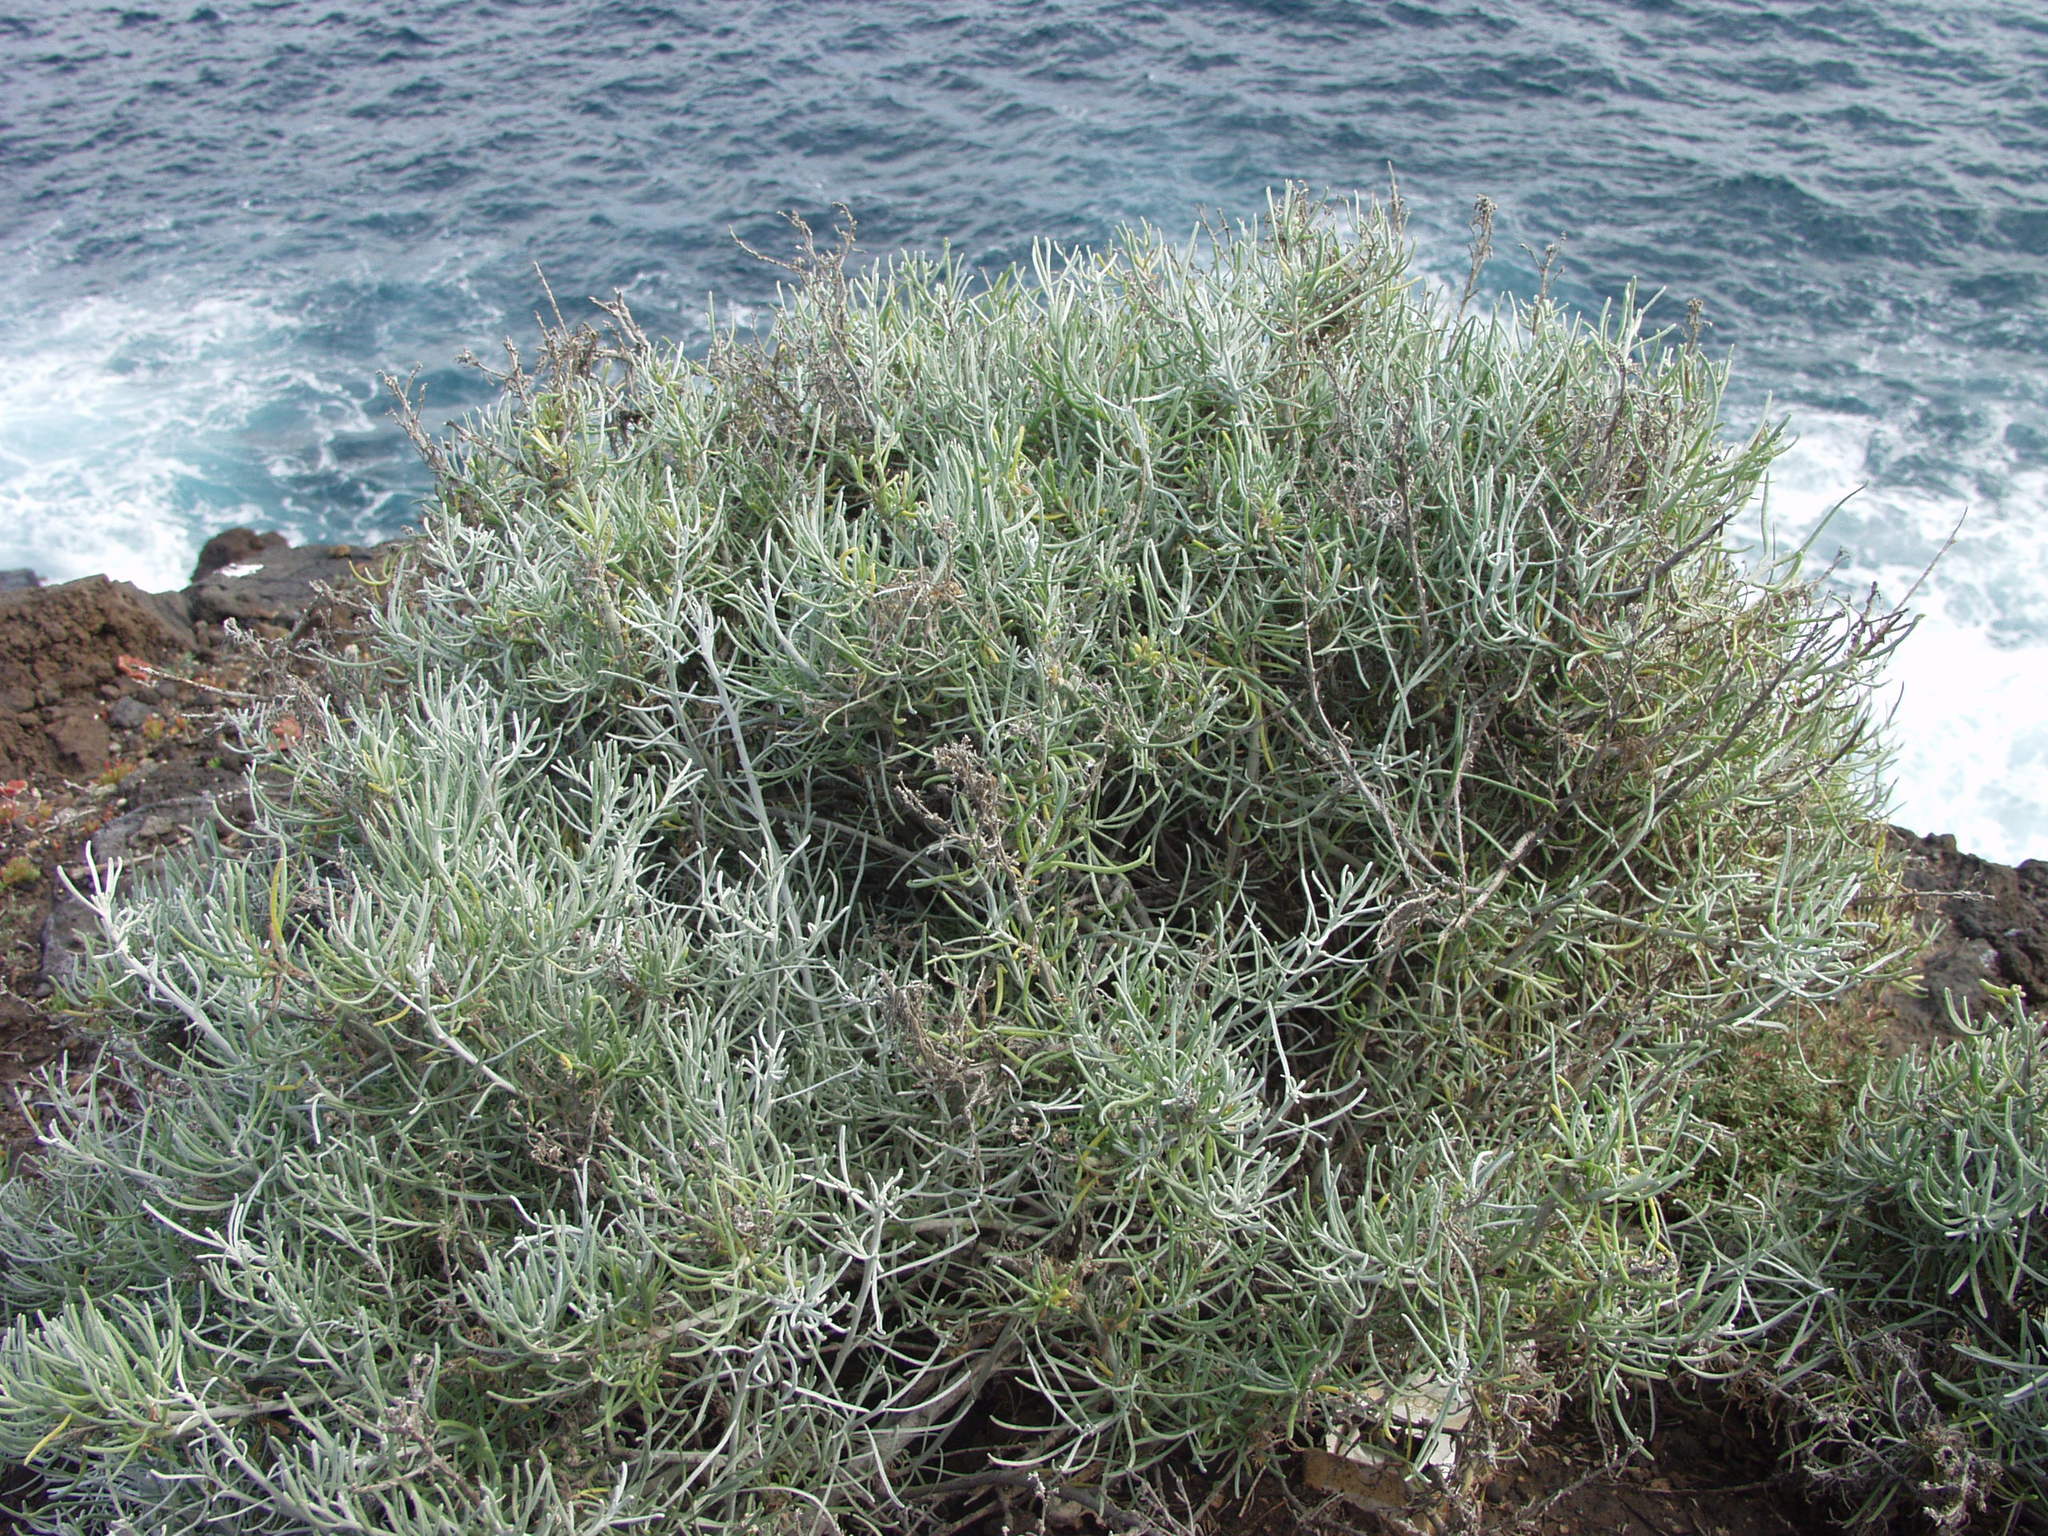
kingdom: Plantae
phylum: Tracheophyta
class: Magnoliopsida
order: Asterales
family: Asteraceae
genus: Schizogyne
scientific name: Schizogyne sericea
